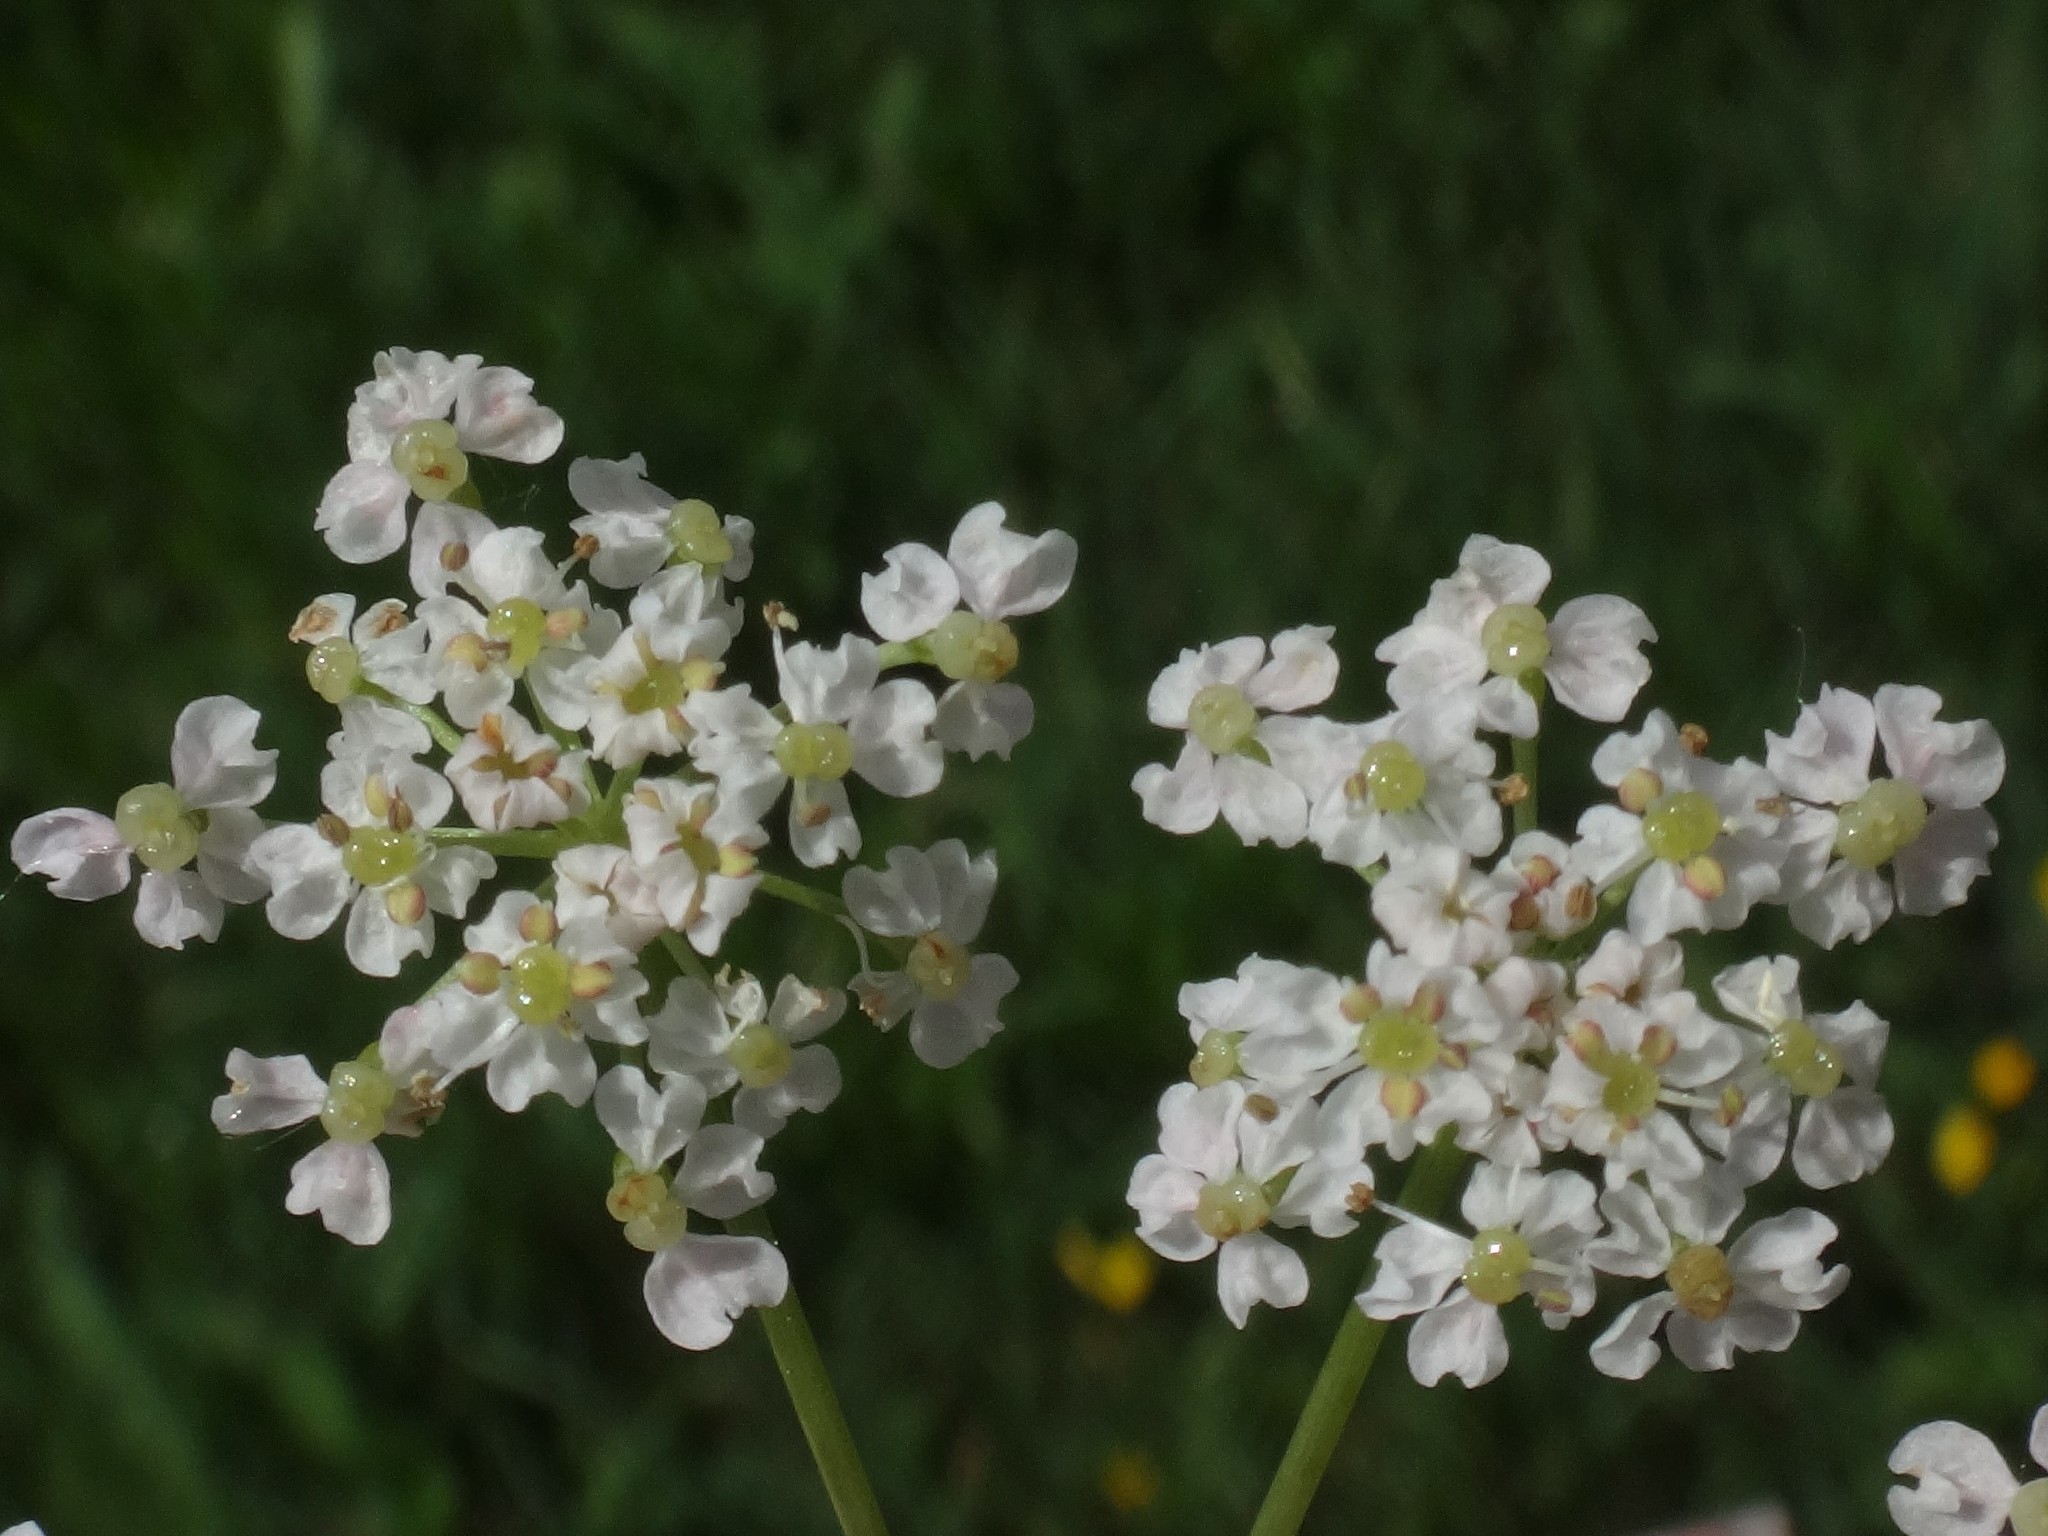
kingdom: Plantae
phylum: Tracheophyta
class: Magnoliopsida
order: Apiales
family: Apiaceae
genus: Carum
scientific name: Carum carvi
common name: Caraway
